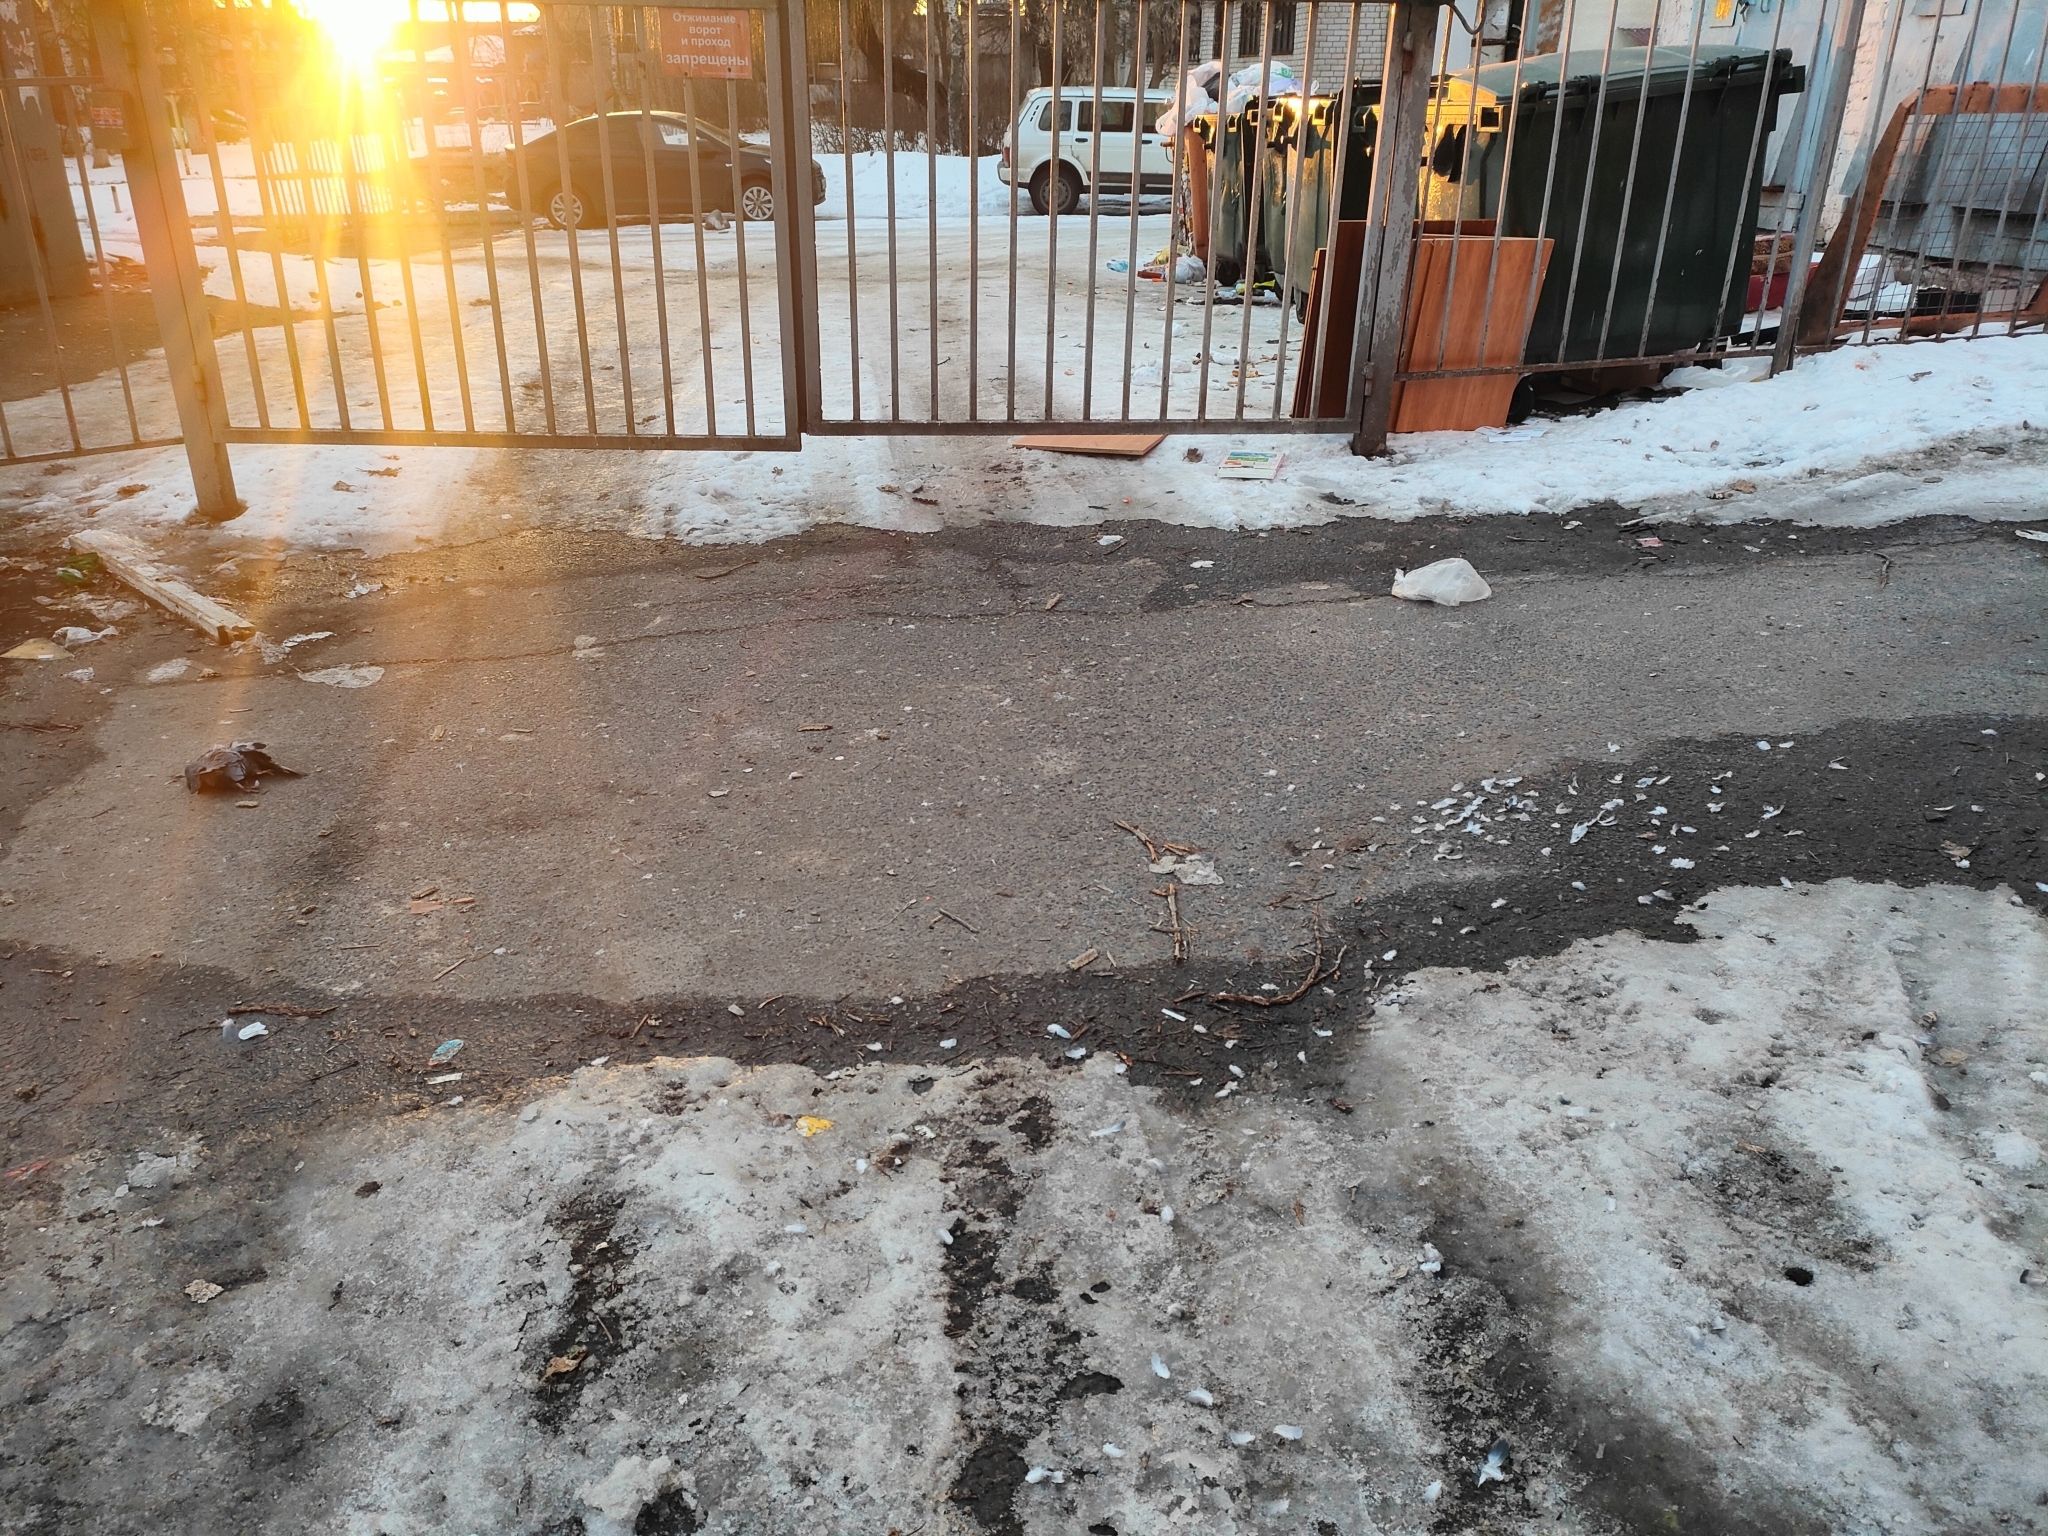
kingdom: Animalia
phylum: Chordata
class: Aves
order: Columbiformes
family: Columbidae
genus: Columba
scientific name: Columba livia
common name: Rock pigeon
